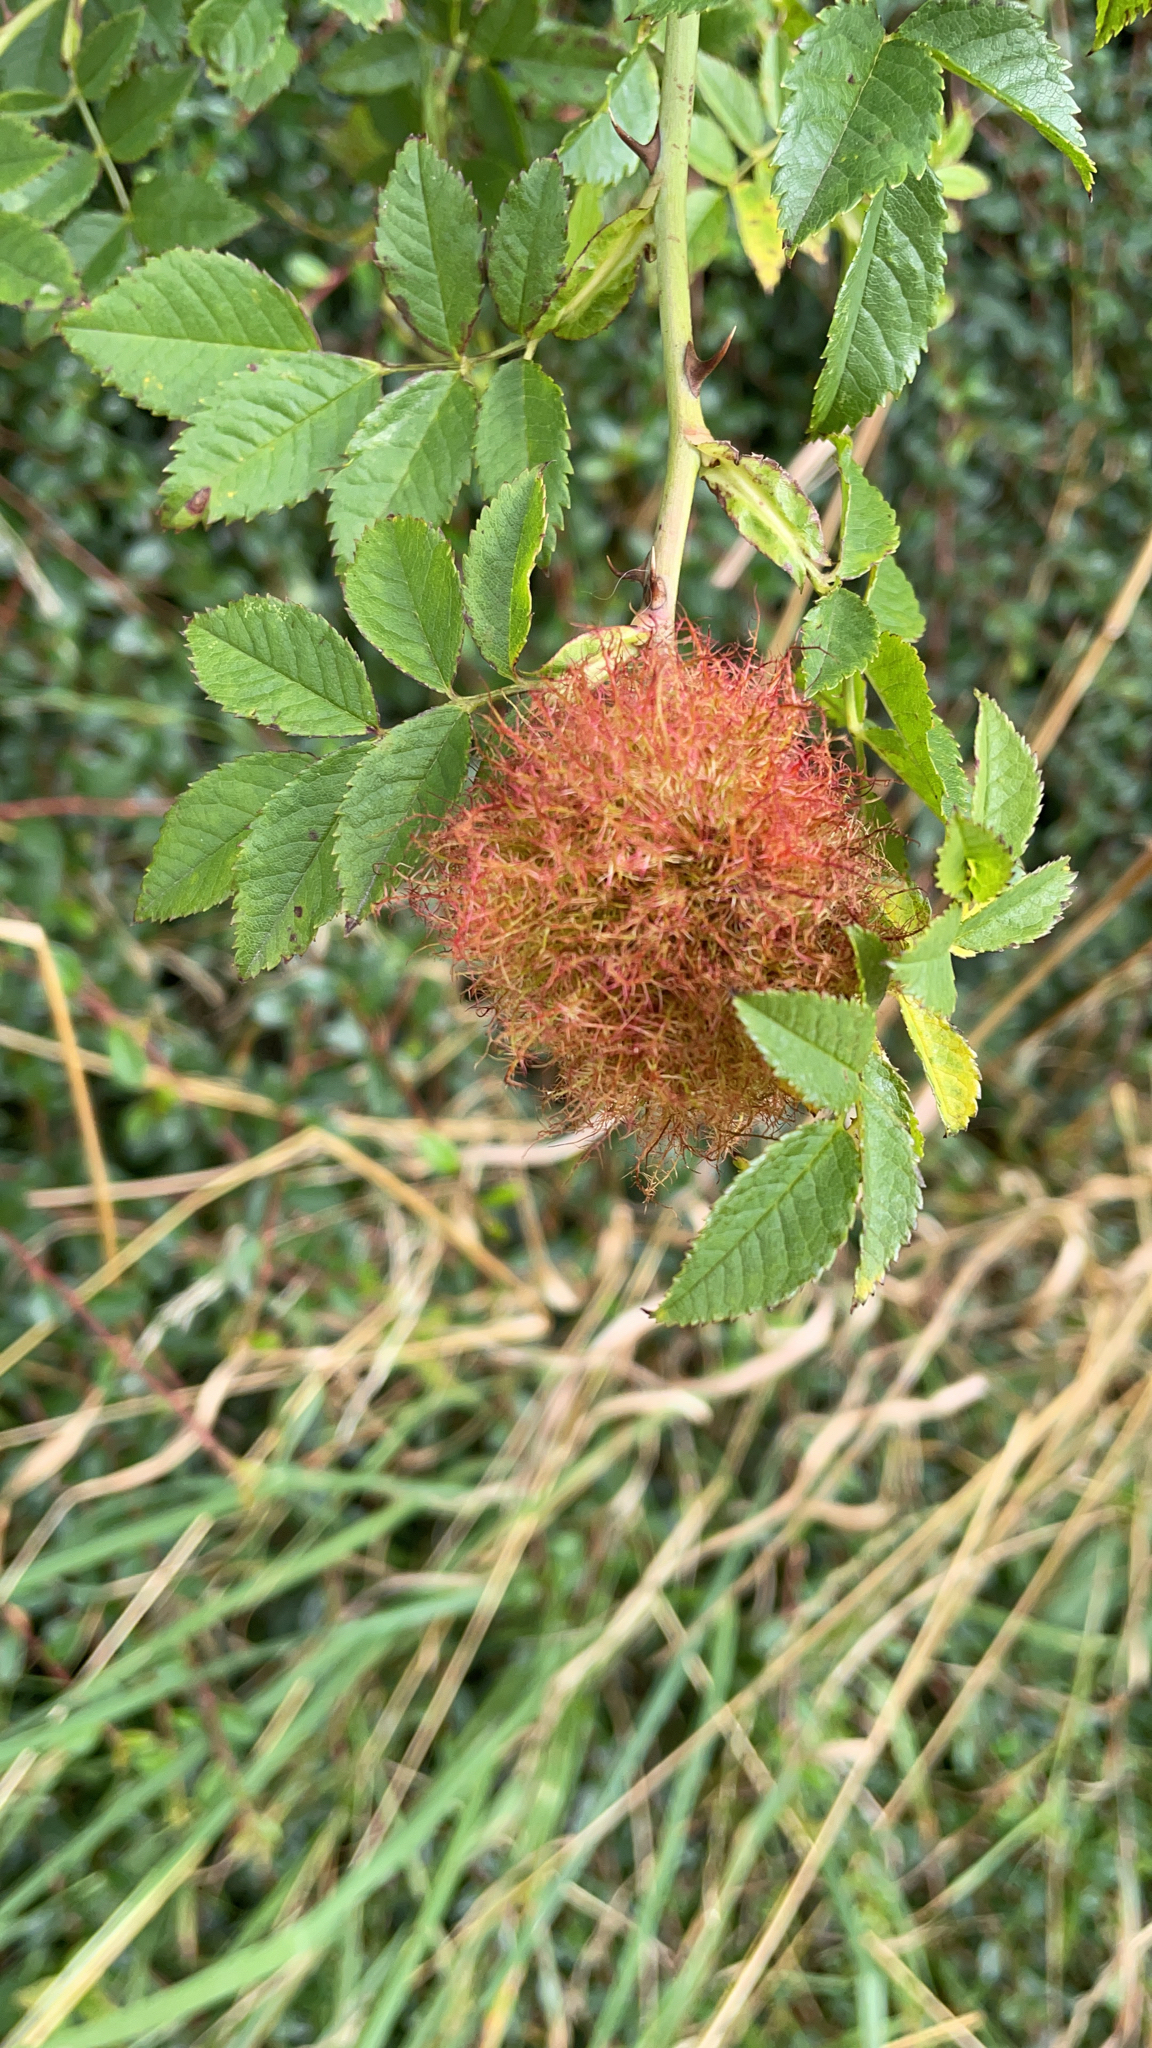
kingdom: Animalia
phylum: Arthropoda
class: Insecta
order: Hymenoptera
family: Cynipidae
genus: Diplolepis
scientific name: Diplolepis rosae
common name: Bedeguar gall
